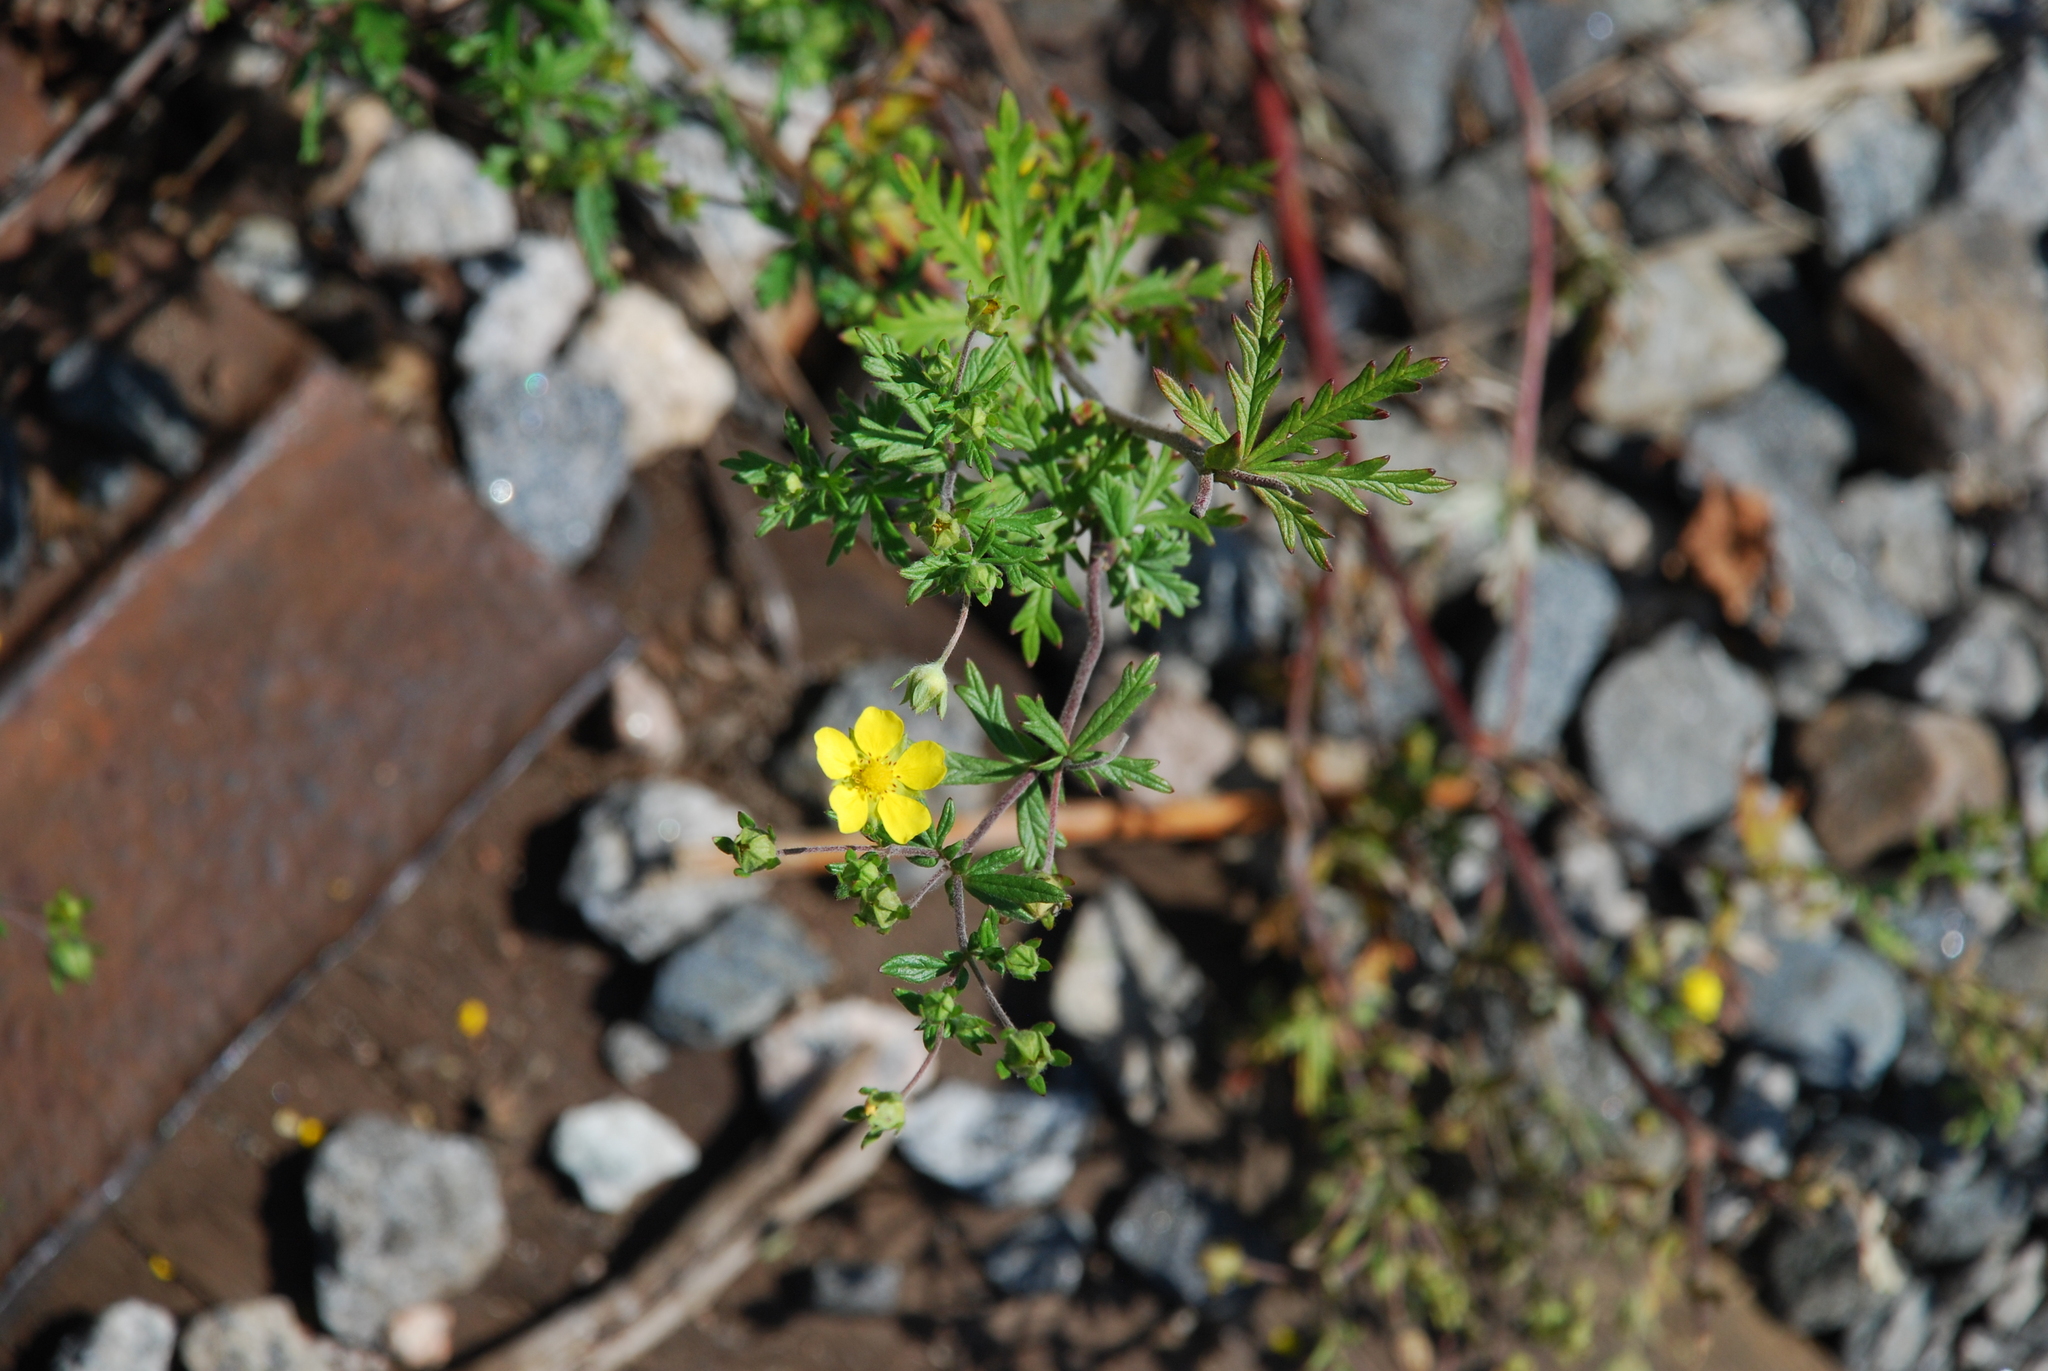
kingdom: Plantae
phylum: Tracheophyta
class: Magnoliopsida
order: Rosales
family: Rosaceae
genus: Potentilla
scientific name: Potentilla argentea
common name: Hoary cinquefoil
